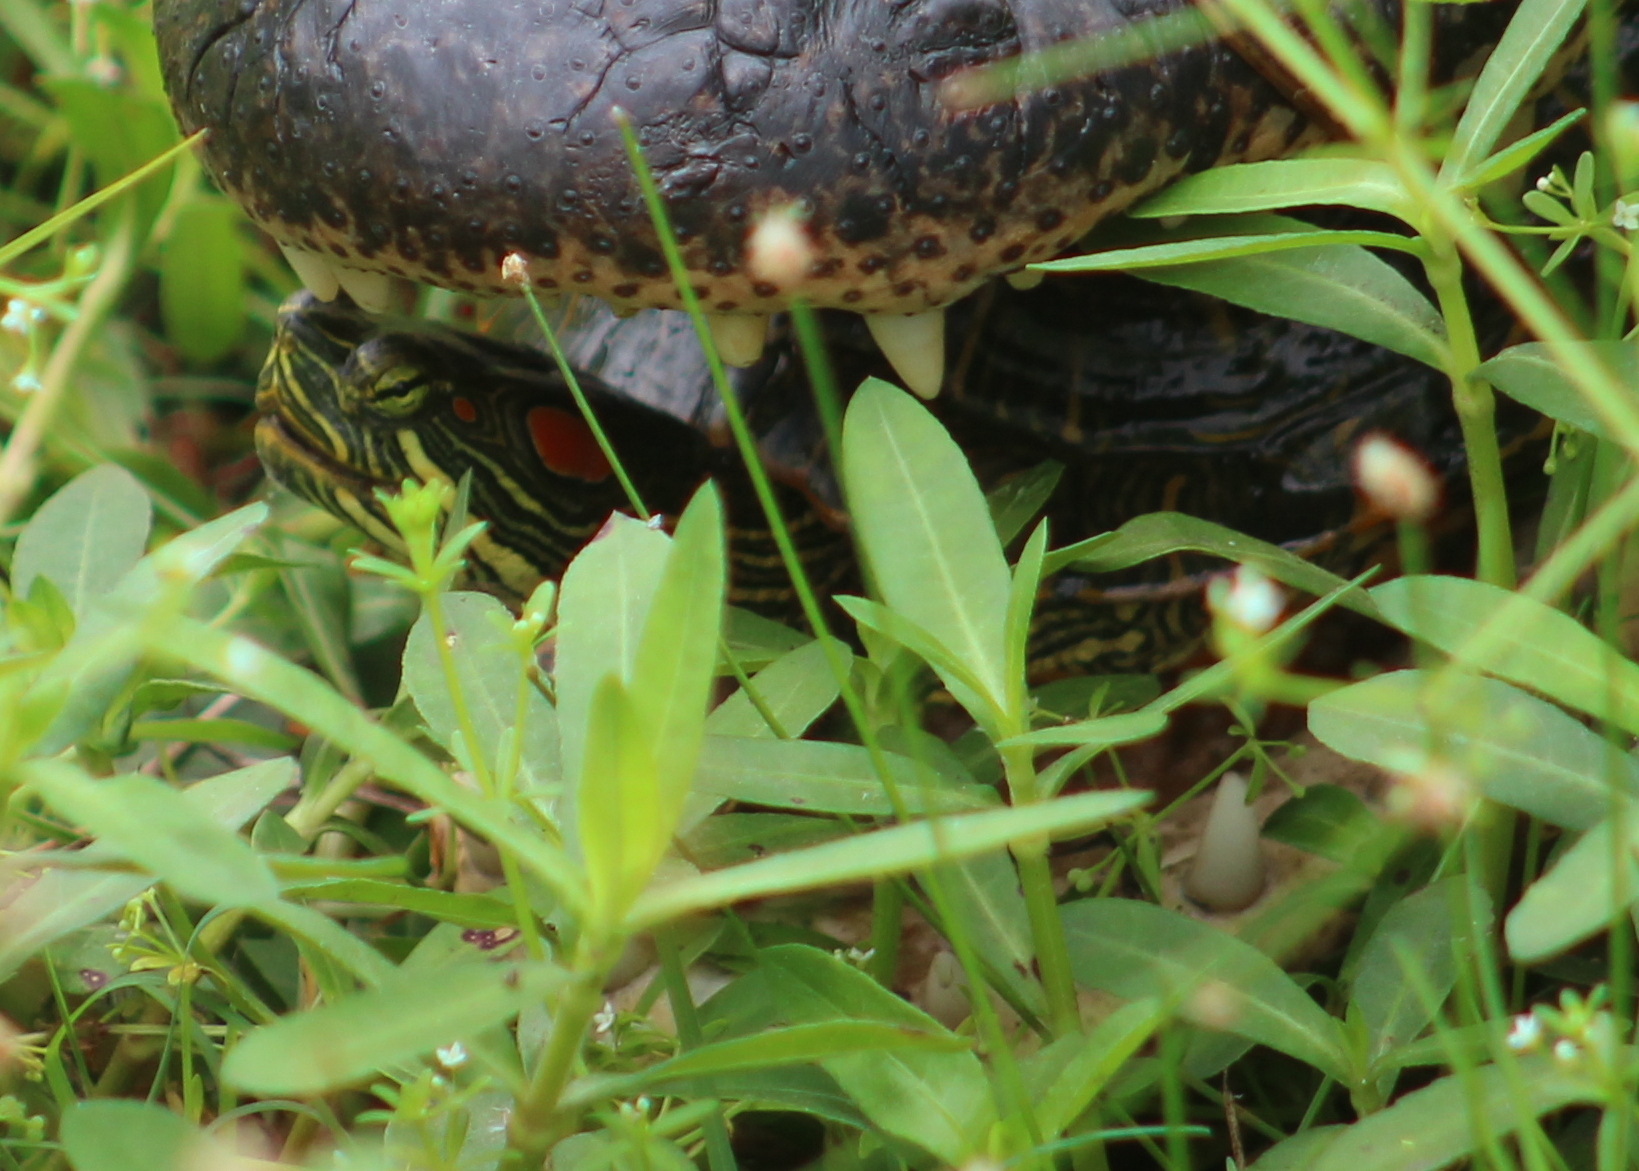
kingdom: Animalia
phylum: Chordata
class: Testudines
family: Emydidae
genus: Trachemys
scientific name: Trachemys scripta
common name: Slider
